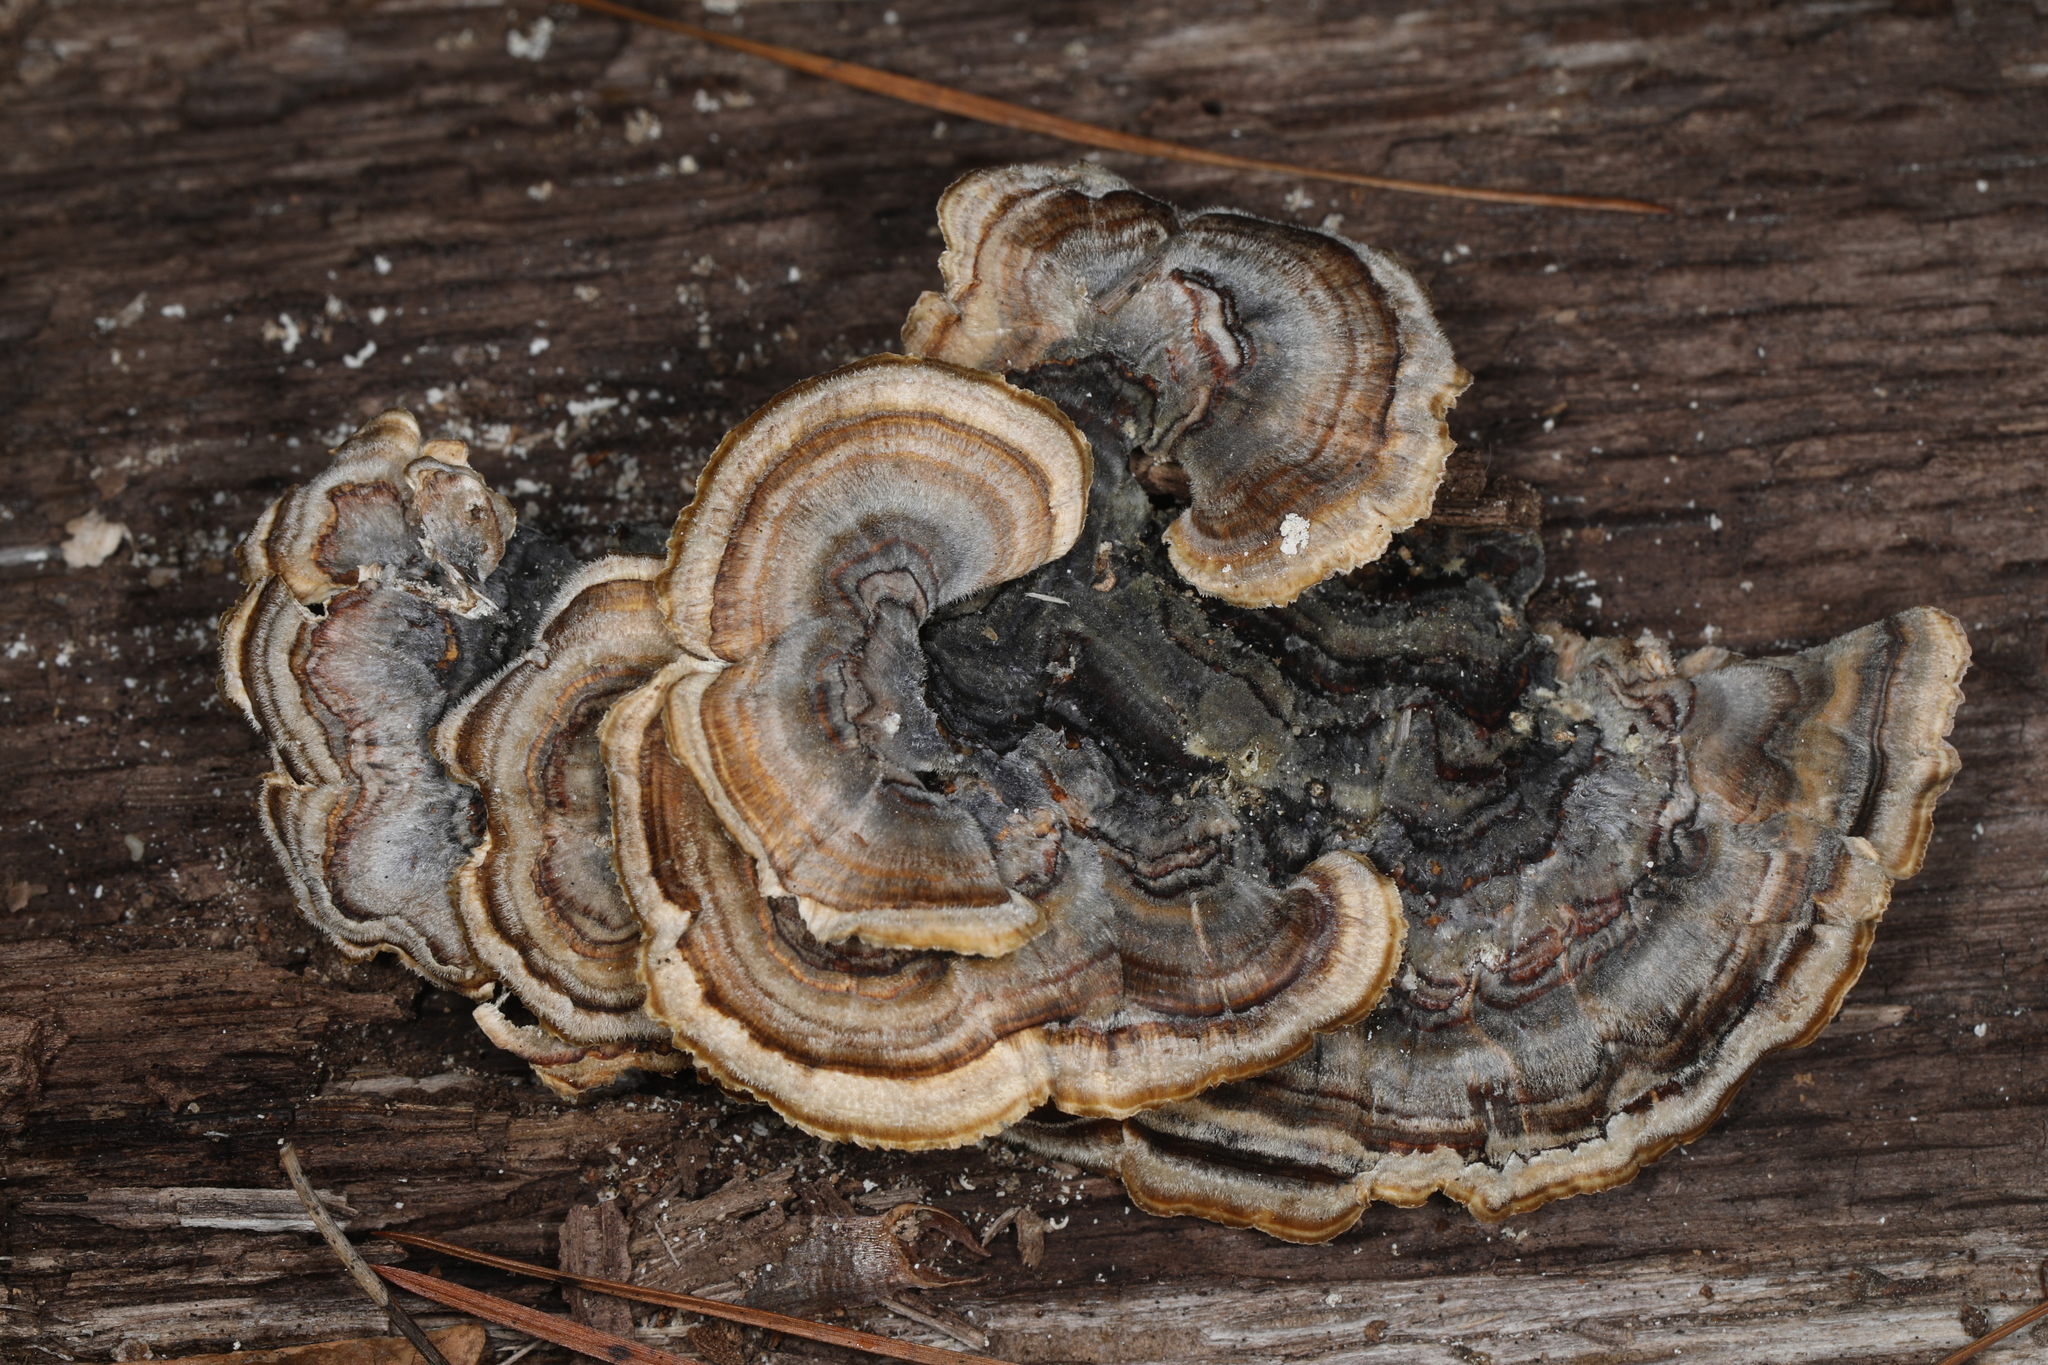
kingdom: Fungi
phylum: Basidiomycota
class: Agaricomycetes
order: Polyporales
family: Polyporaceae
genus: Trametes
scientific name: Trametes versicolor
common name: Turkeytail
